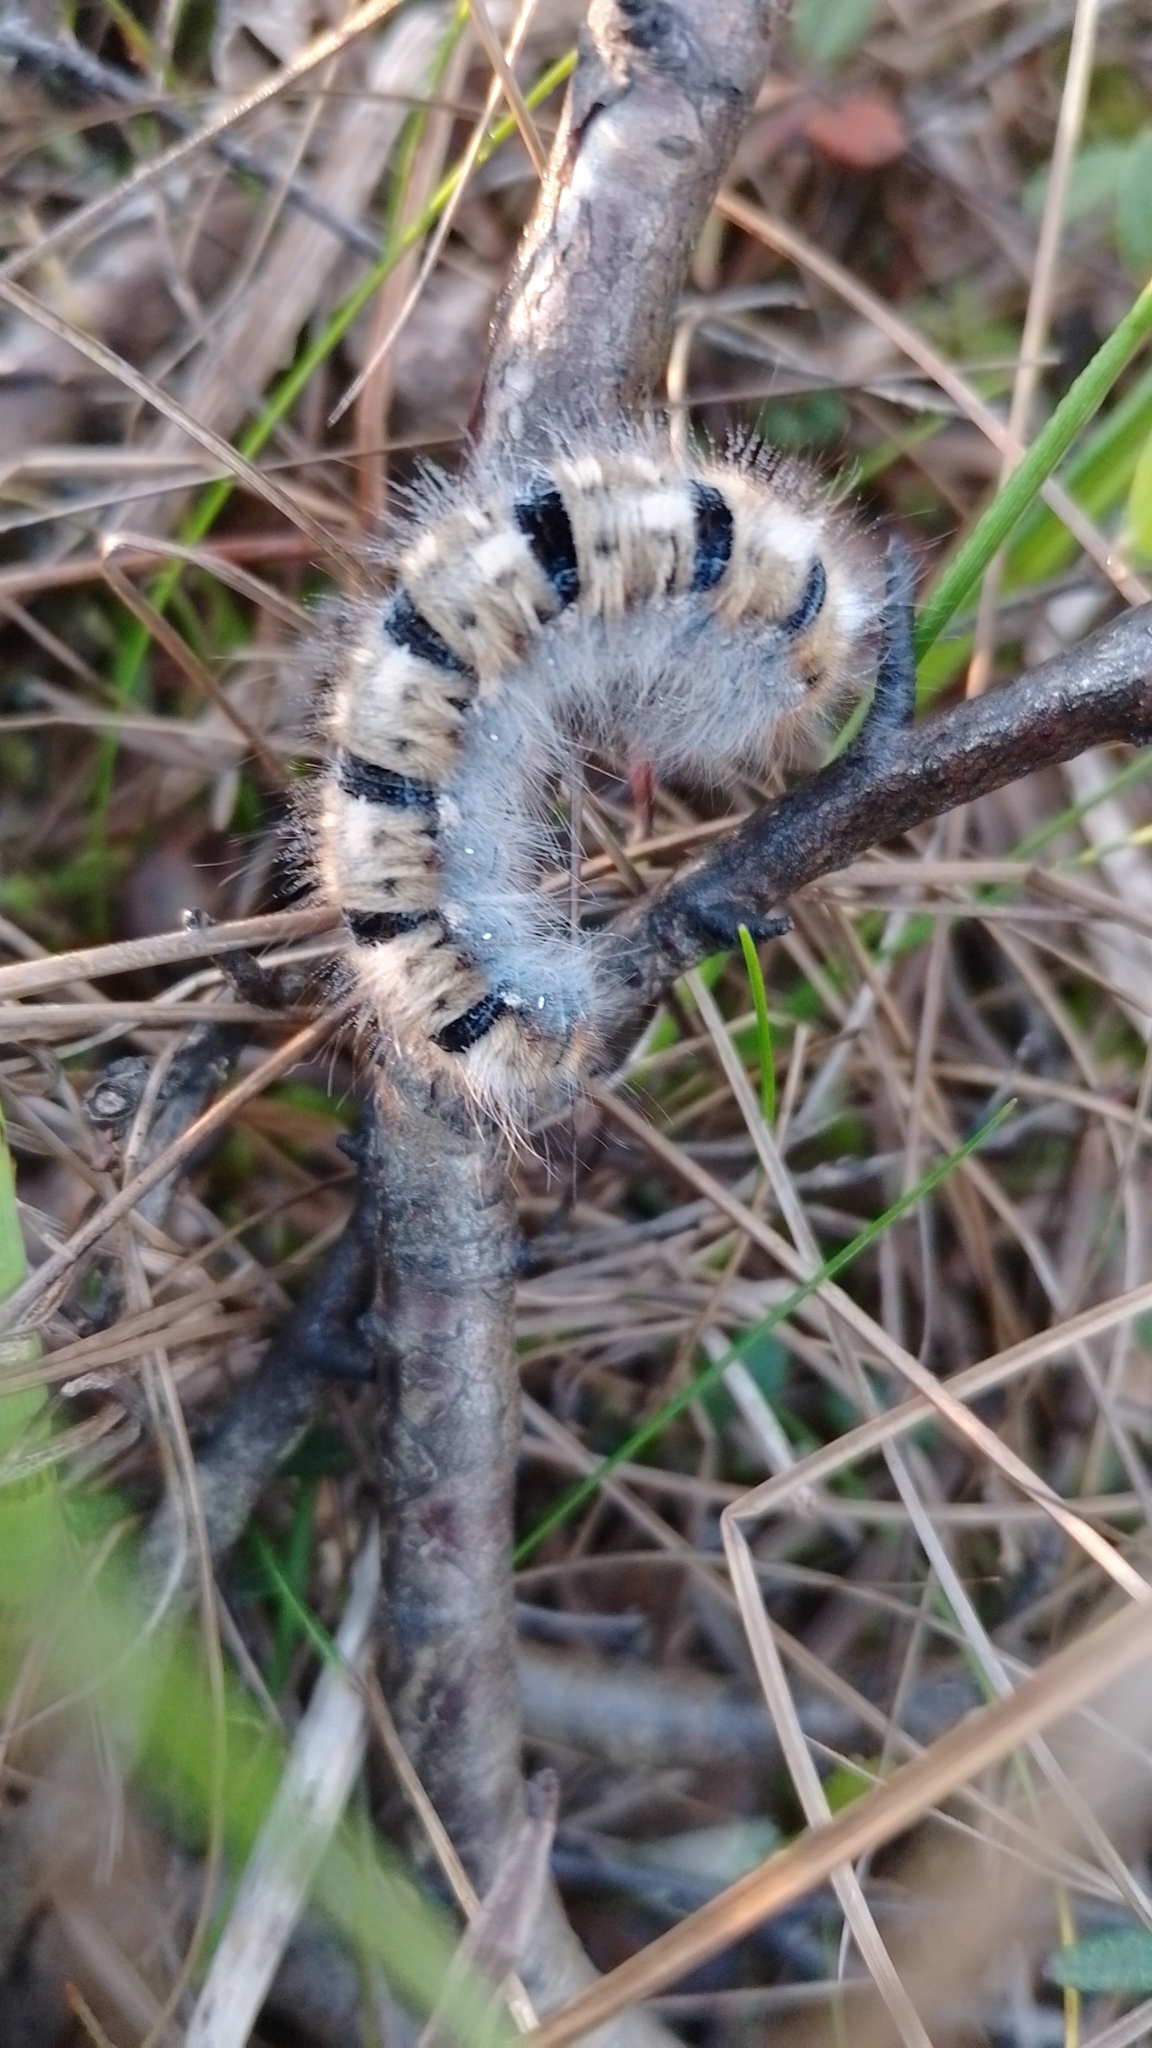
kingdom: Animalia
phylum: Arthropoda
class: Insecta
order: Lepidoptera
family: Lasiocampidae
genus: Lasiocampa
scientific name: Lasiocampa quercus
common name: Oak eggar
